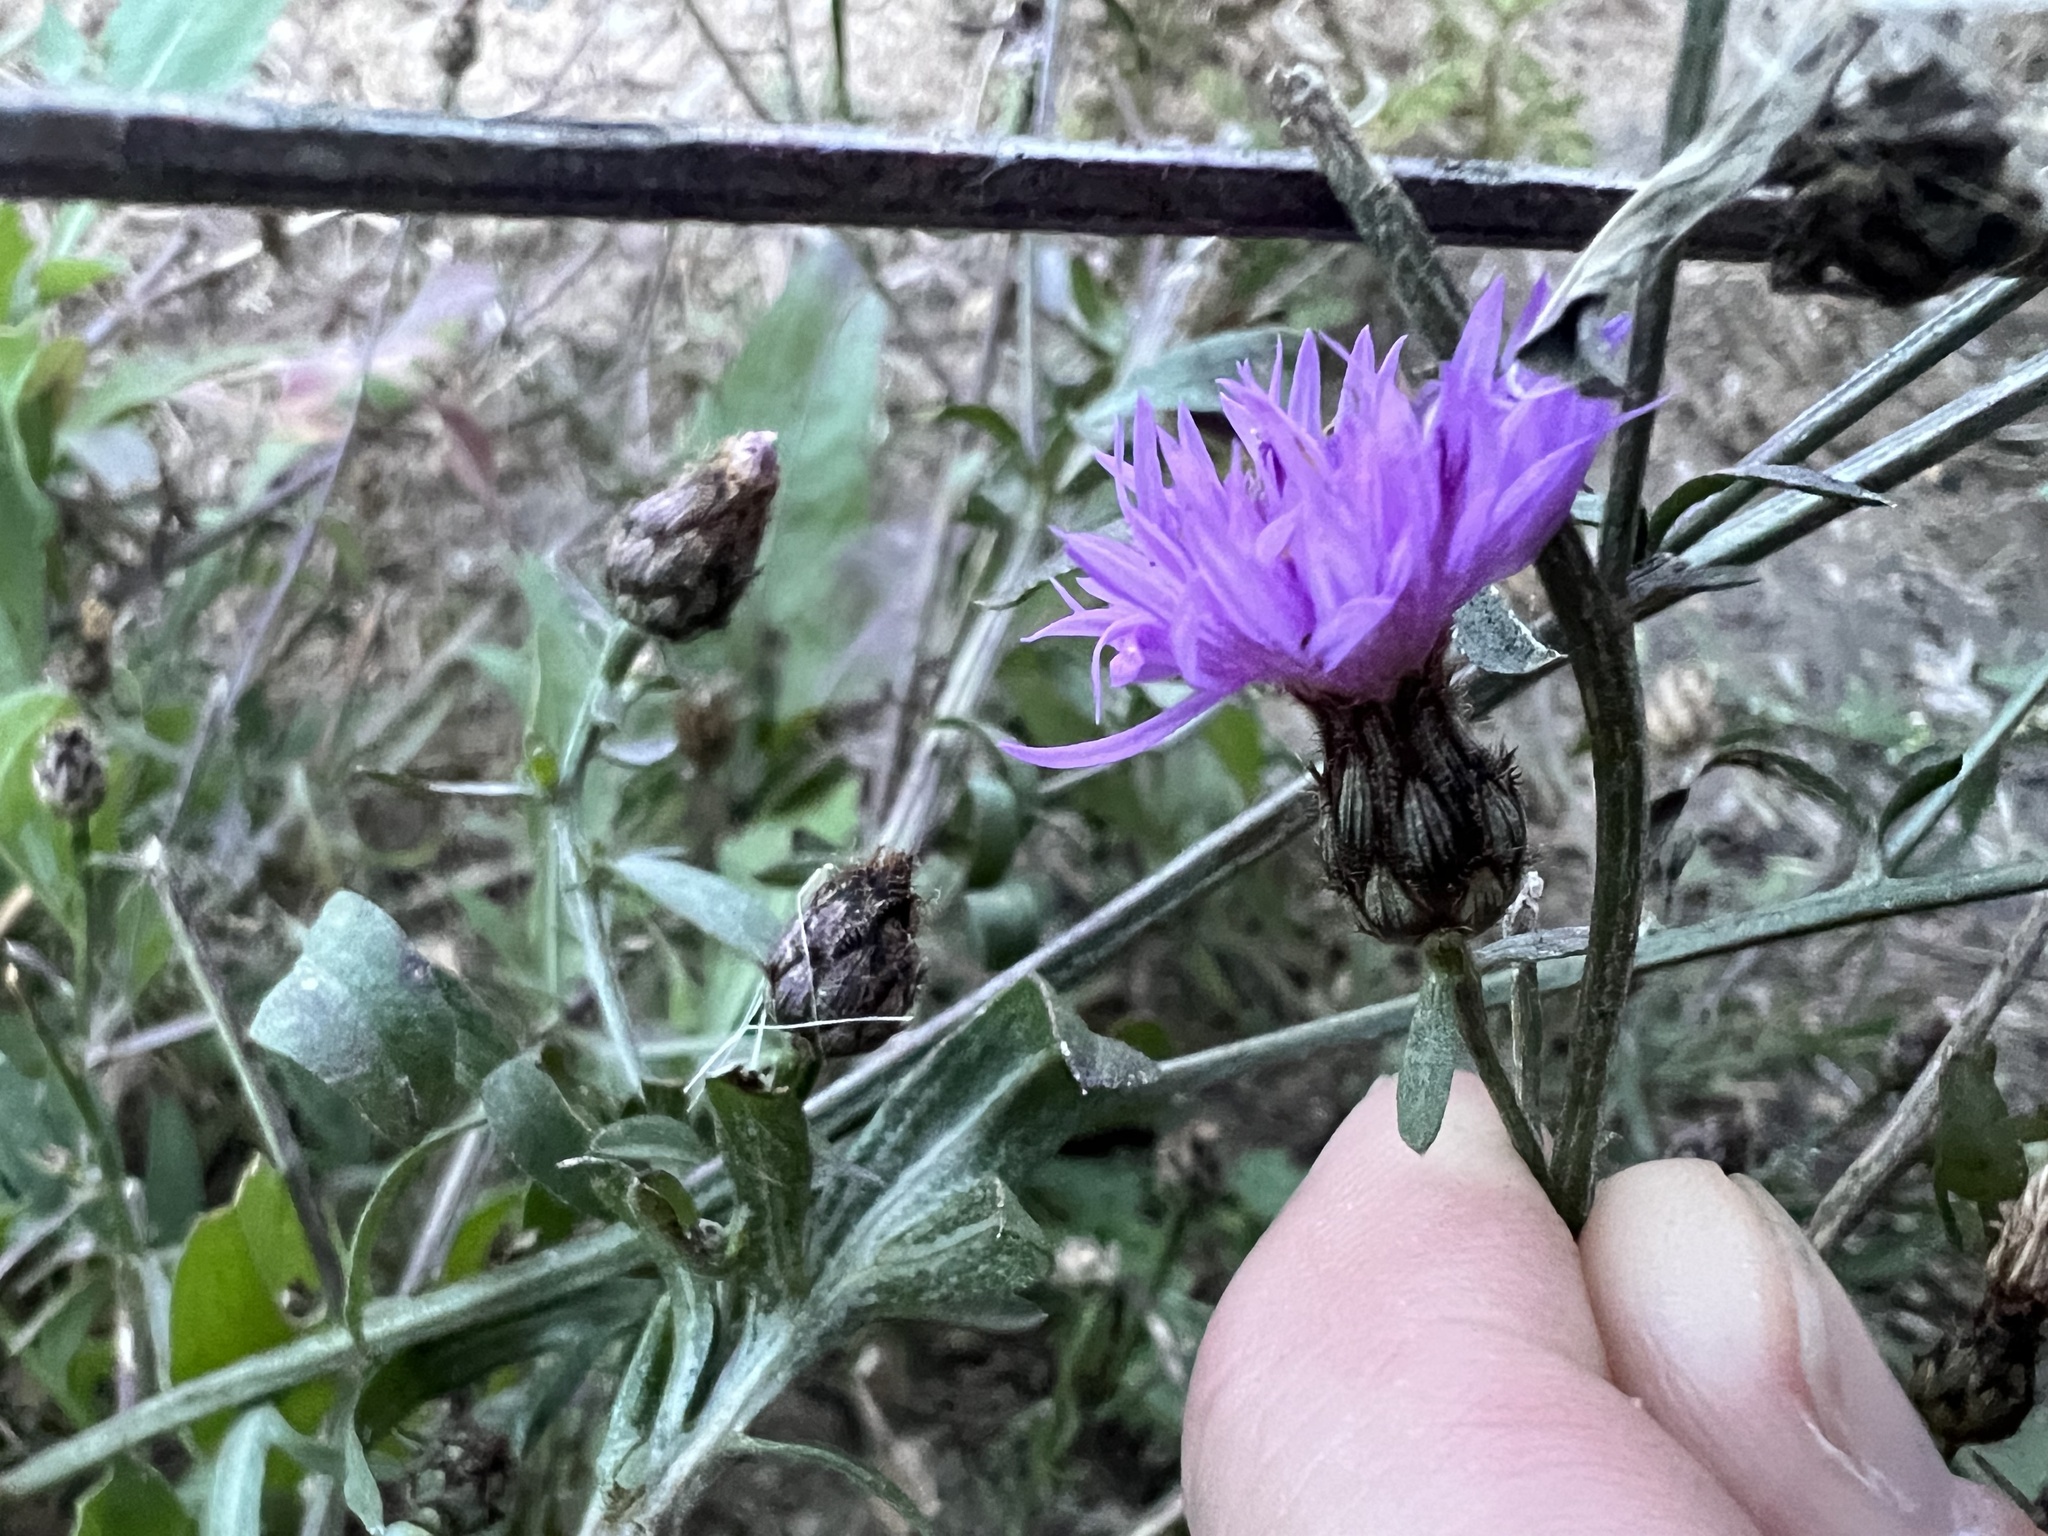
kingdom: Plantae
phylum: Tracheophyta
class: Magnoliopsida
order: Asterales
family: Asteraceae
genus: Centaurea
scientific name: Centaurea stoebe
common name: Spotted knapweed
